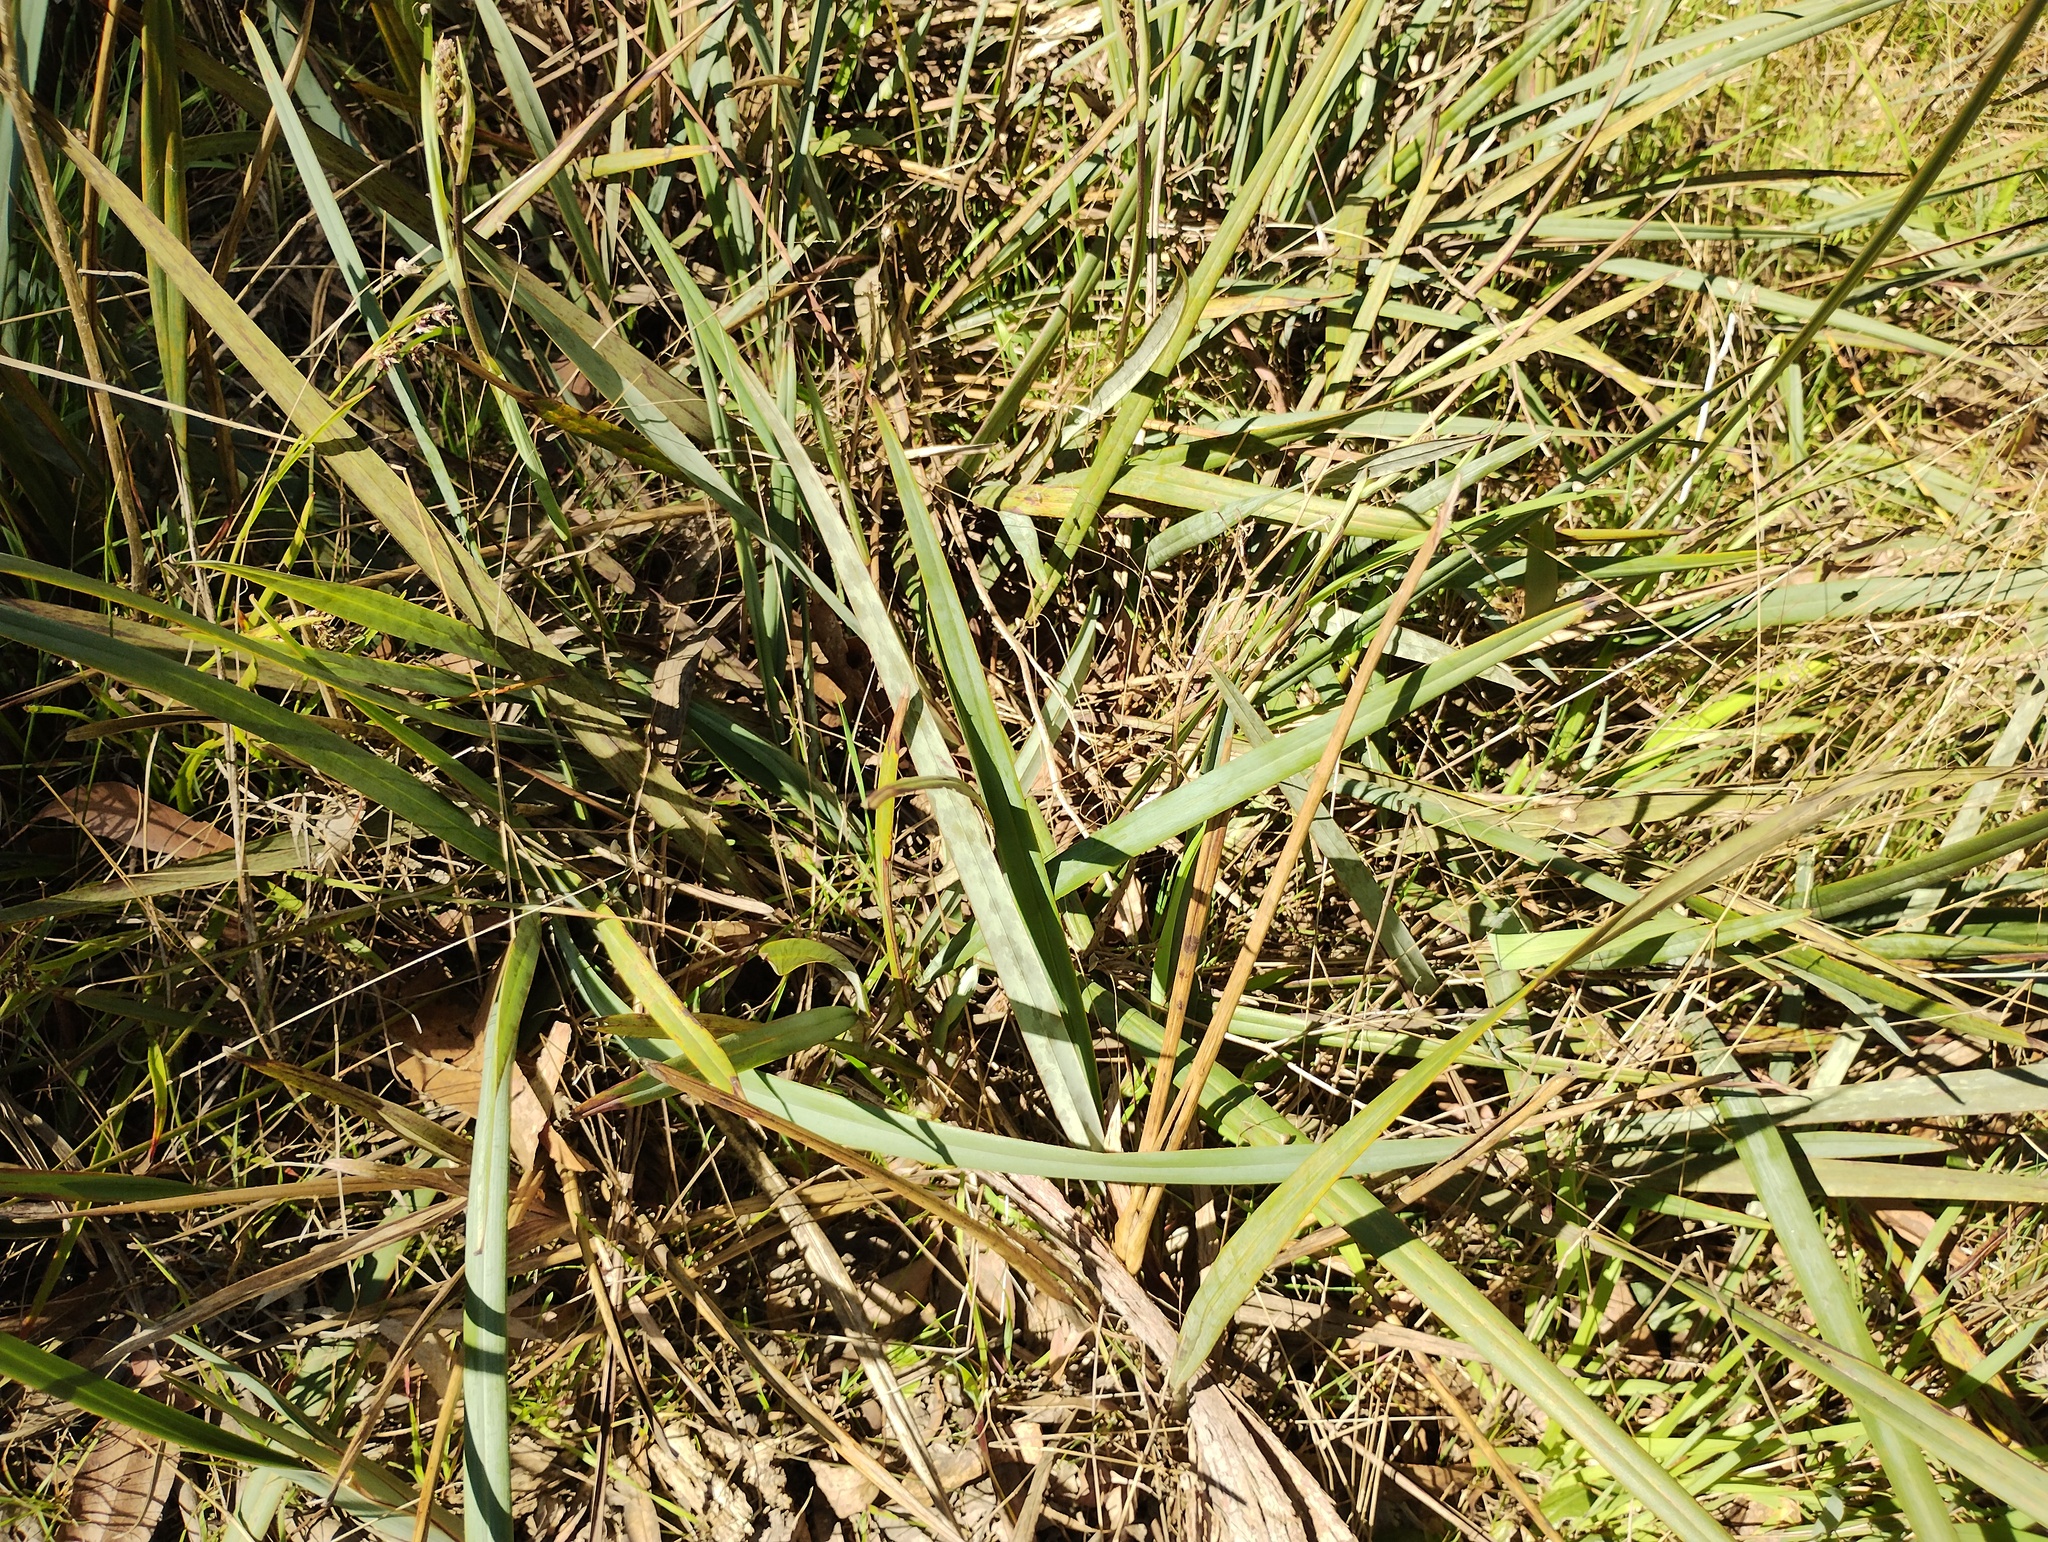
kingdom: Plantae
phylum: Tracheophyta
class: Liliopsida
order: Asparagales
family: Asphodelaceae
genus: Dianella
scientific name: Dianella revoluta
